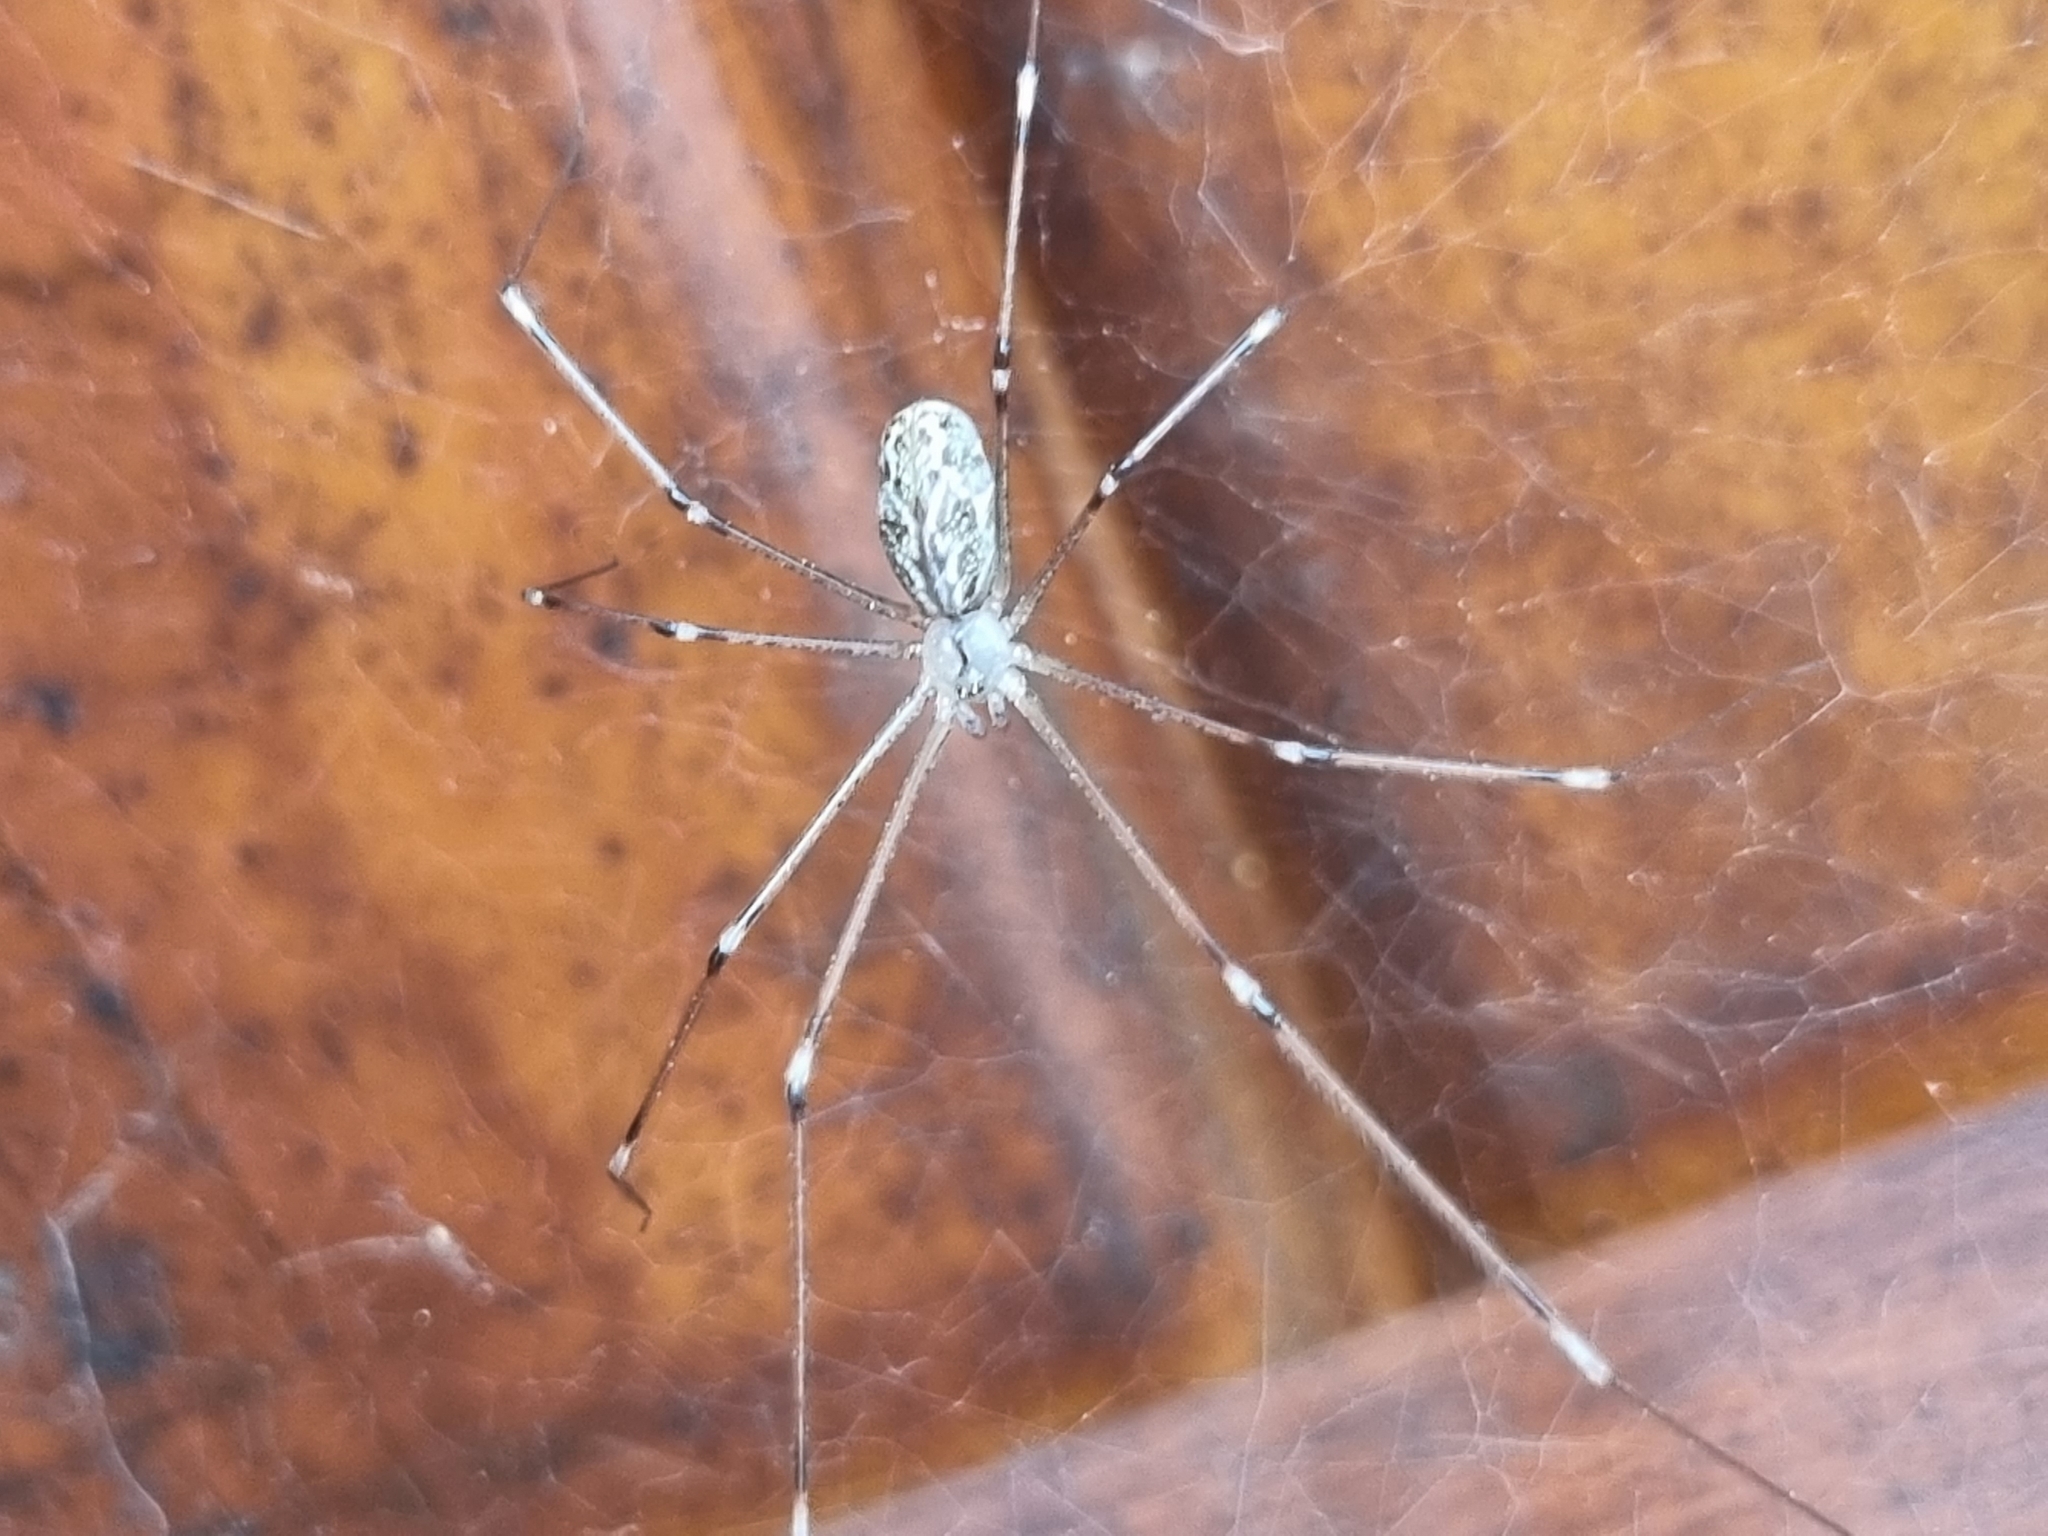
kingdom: Animalia
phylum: Arthropoda
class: Arachnida
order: Araneae
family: Pholcidae
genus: Holocnemus
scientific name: Holocnemus pluchei
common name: Marbled cellar spider
